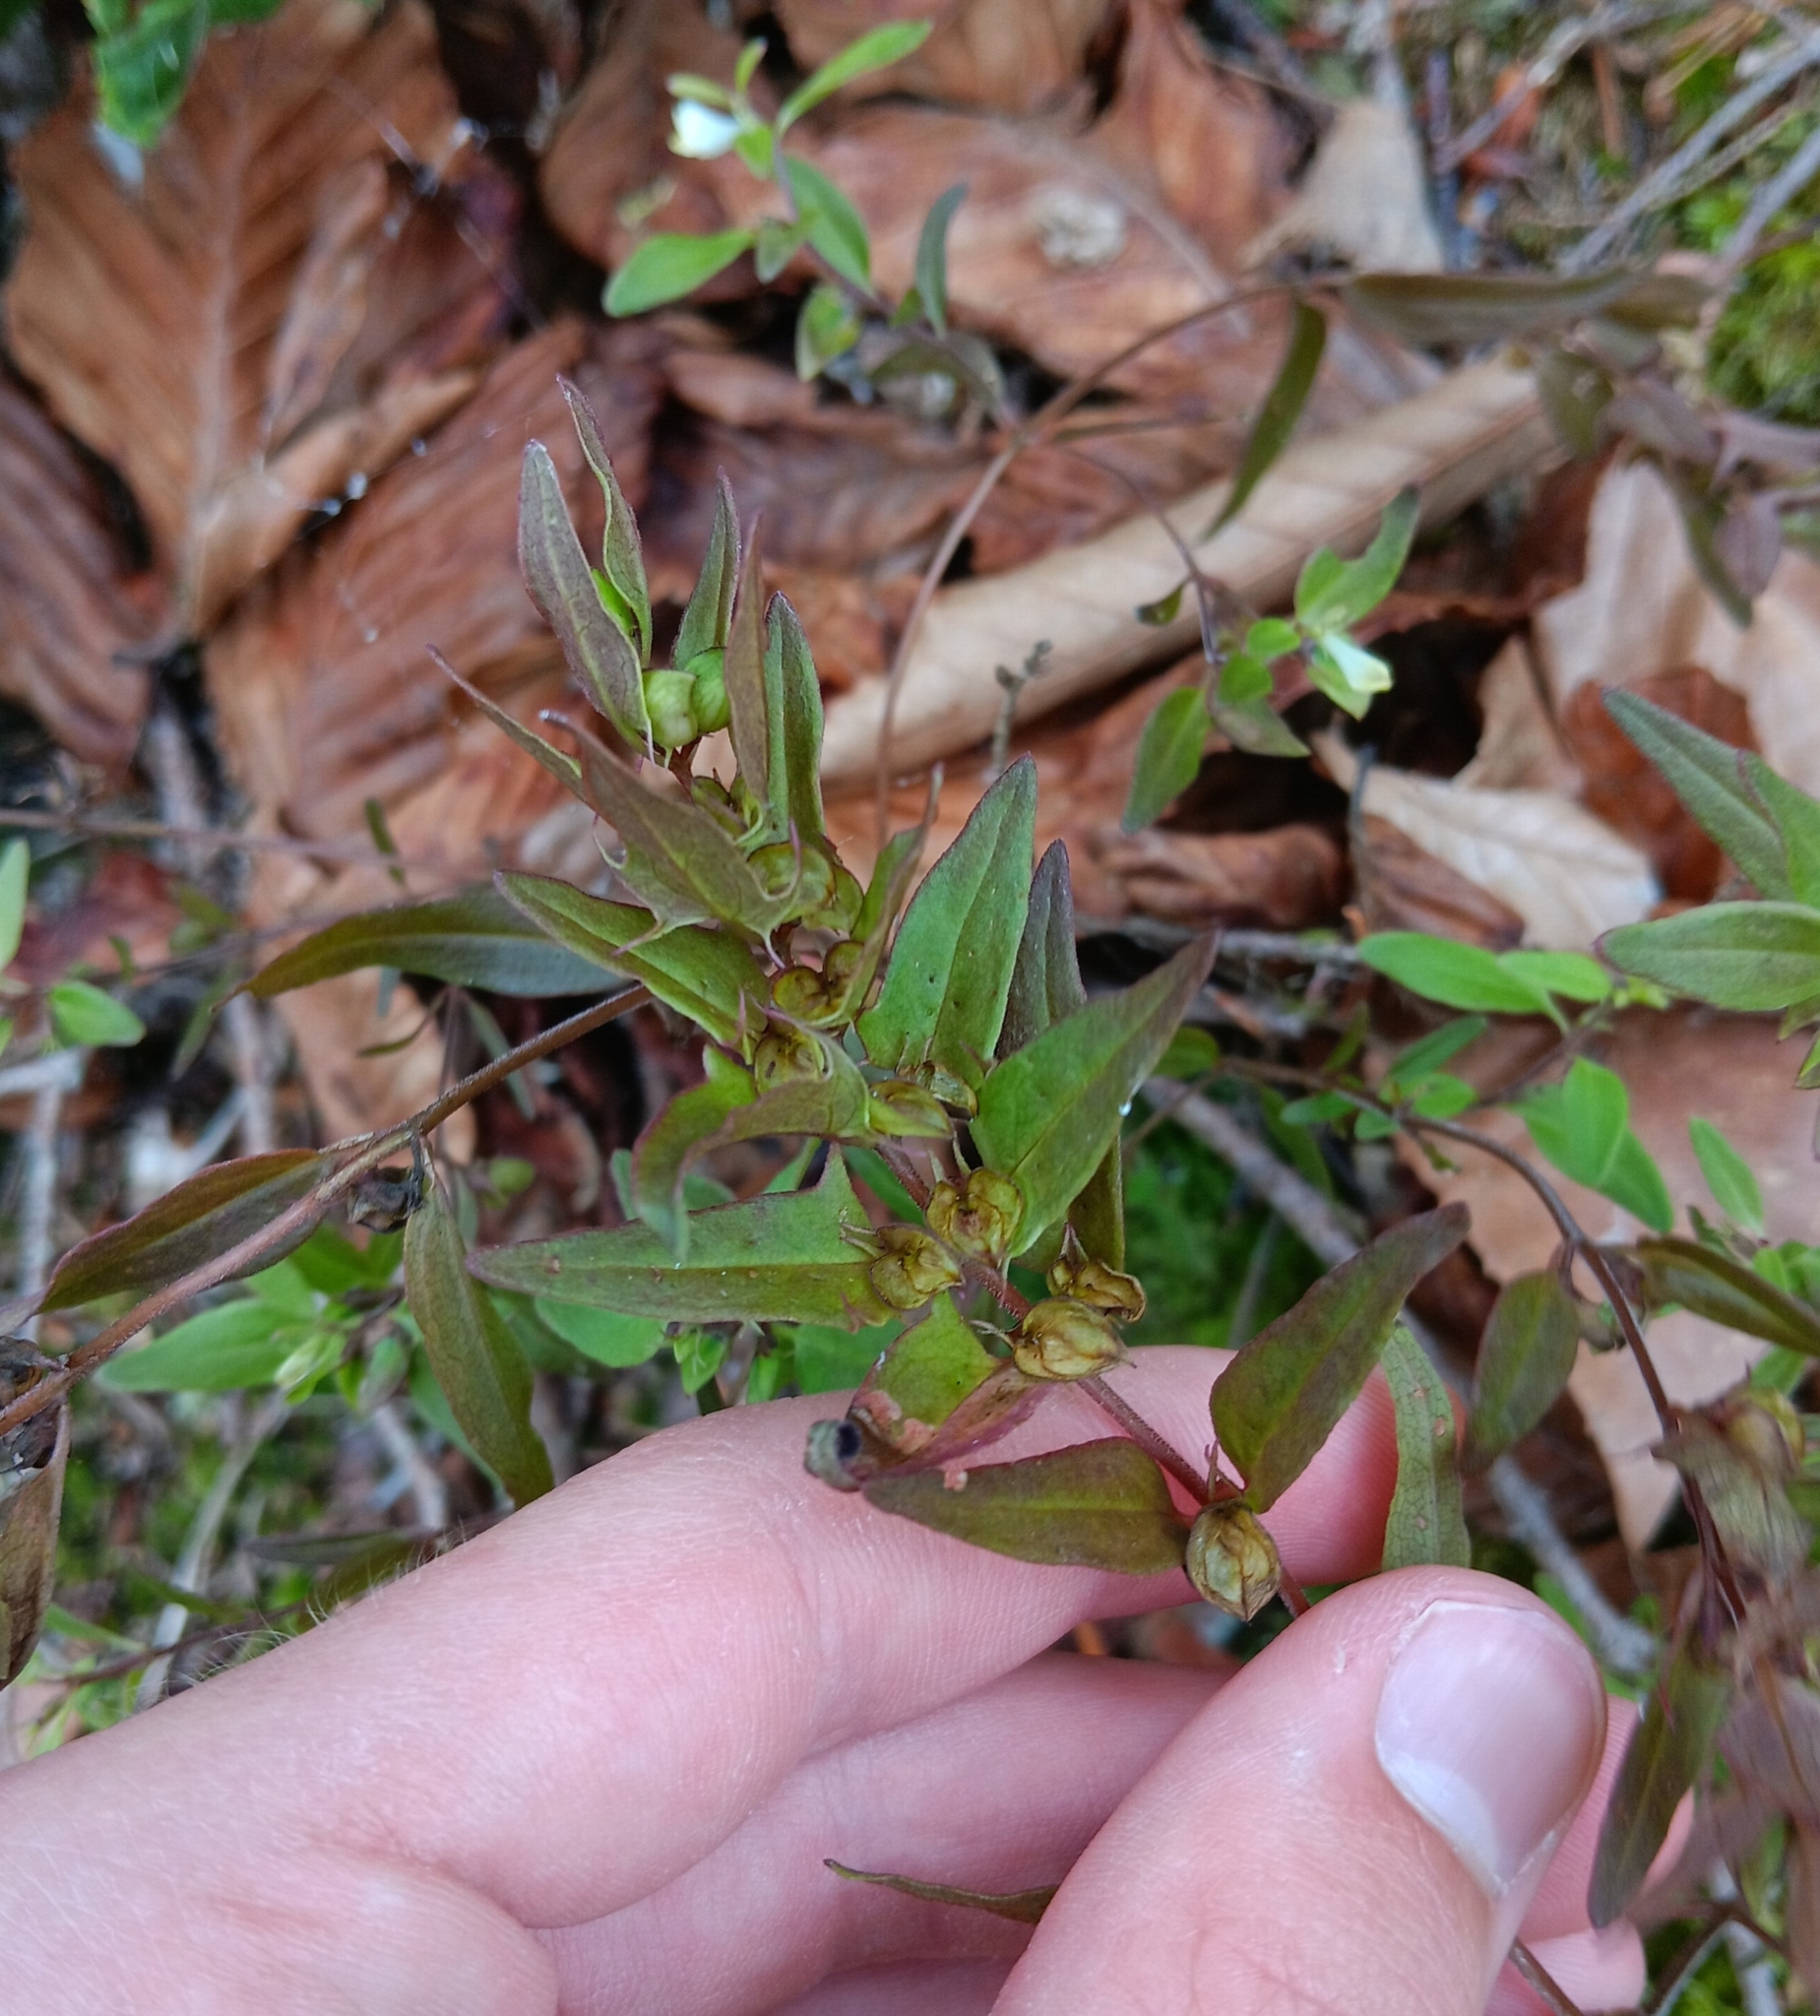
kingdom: Plantae
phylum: Tracheophyta
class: Magnoliopsida
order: Lamiales
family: Orobanchaceae
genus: Melampyrum
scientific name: Melampyrum lineare
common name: American cow-wheat
